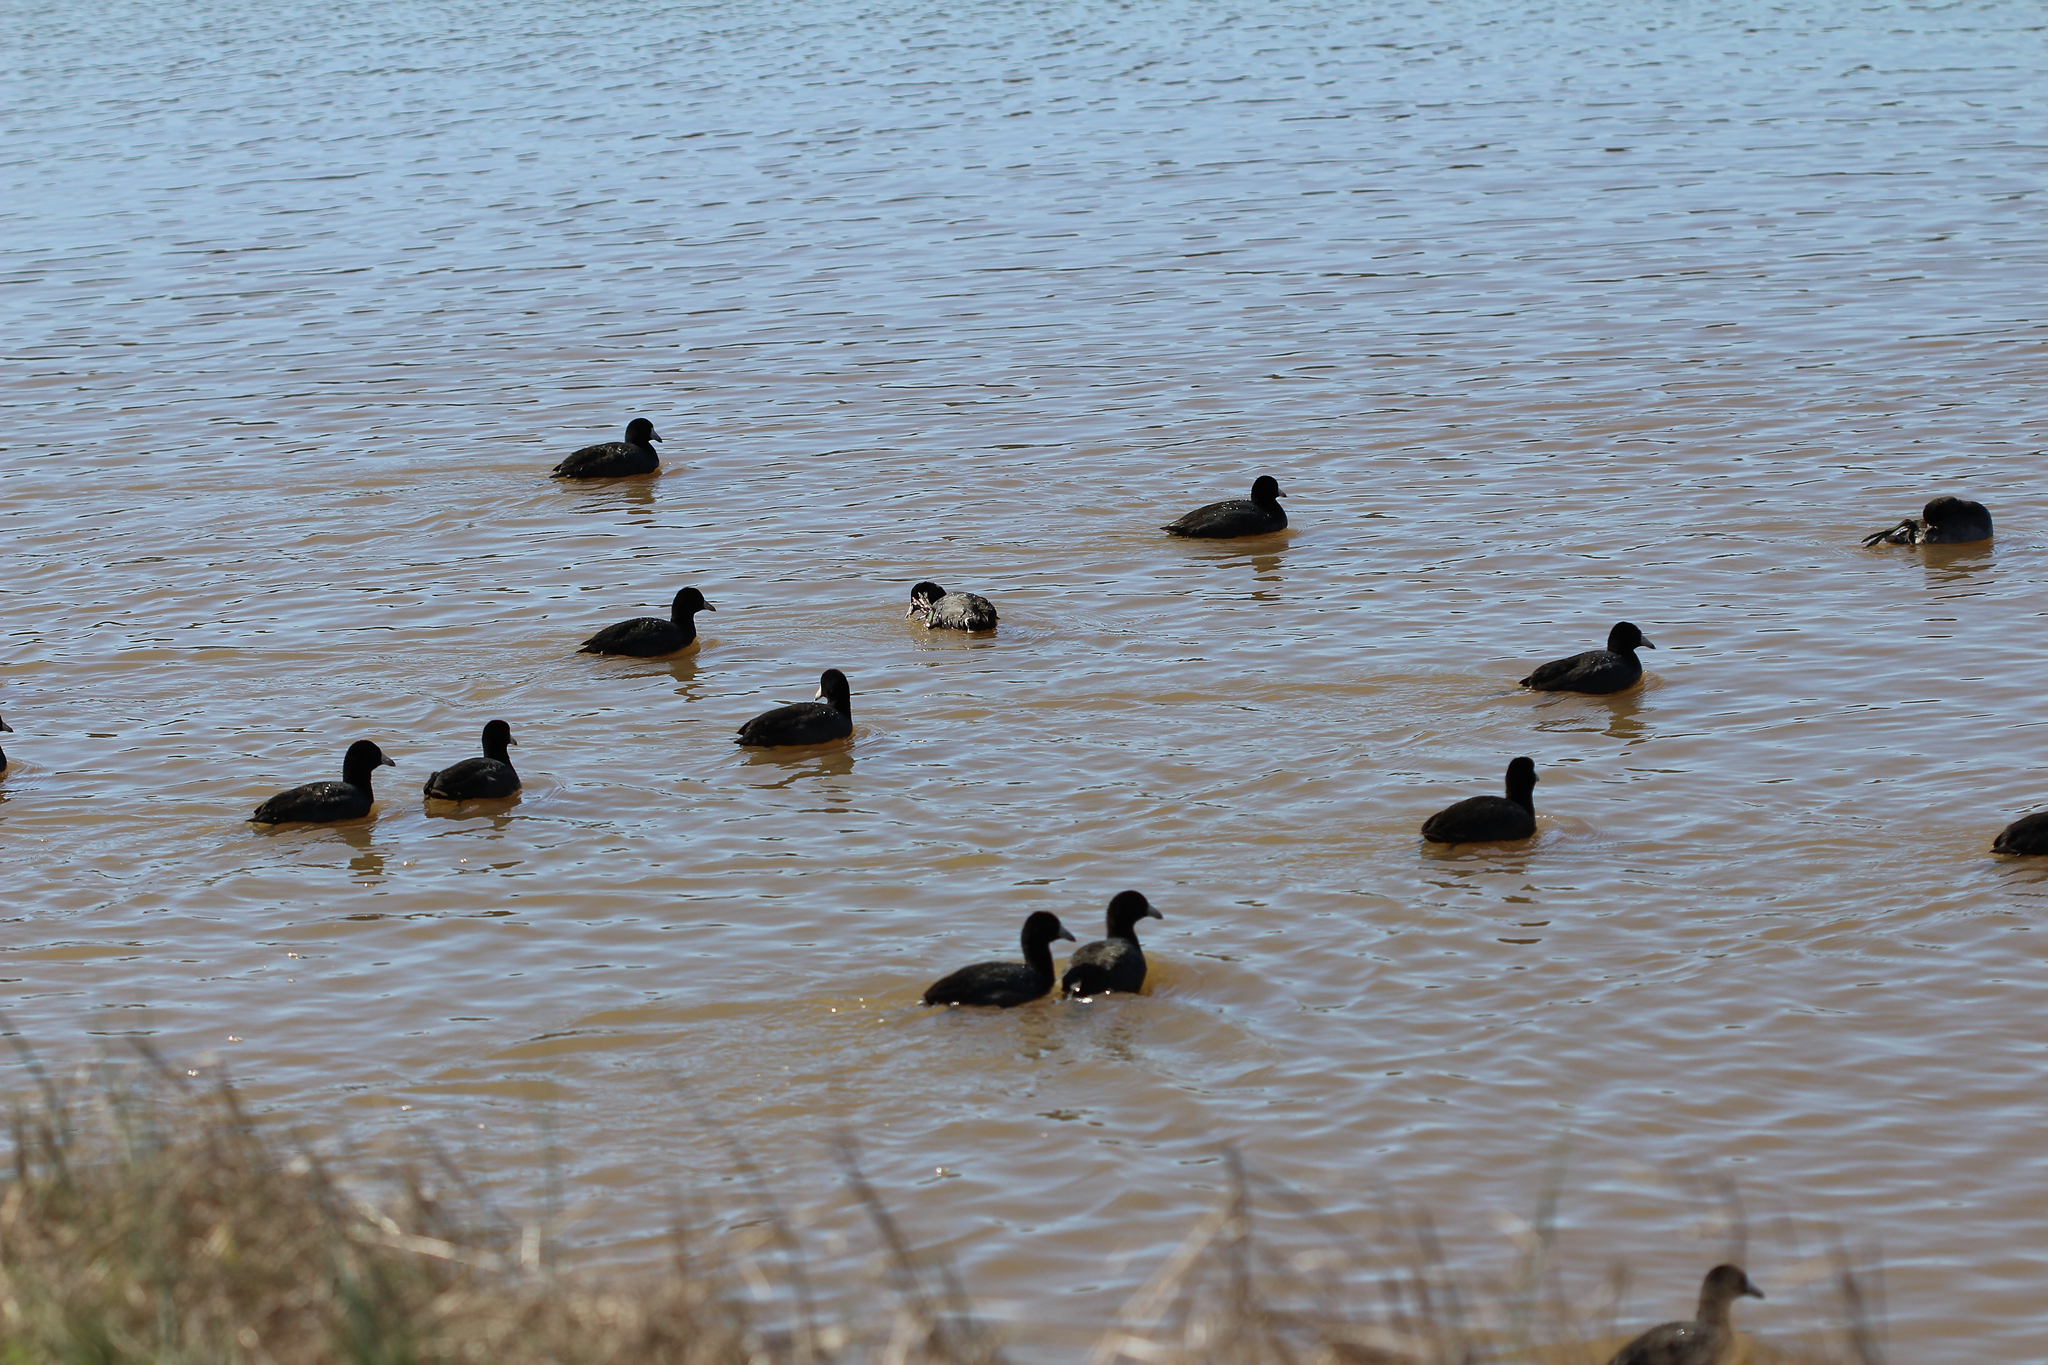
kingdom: Animalia
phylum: Chordata
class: Aves
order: Gruiformes
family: Rallidae
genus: Fulica
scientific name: Fulica americana
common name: American coot
